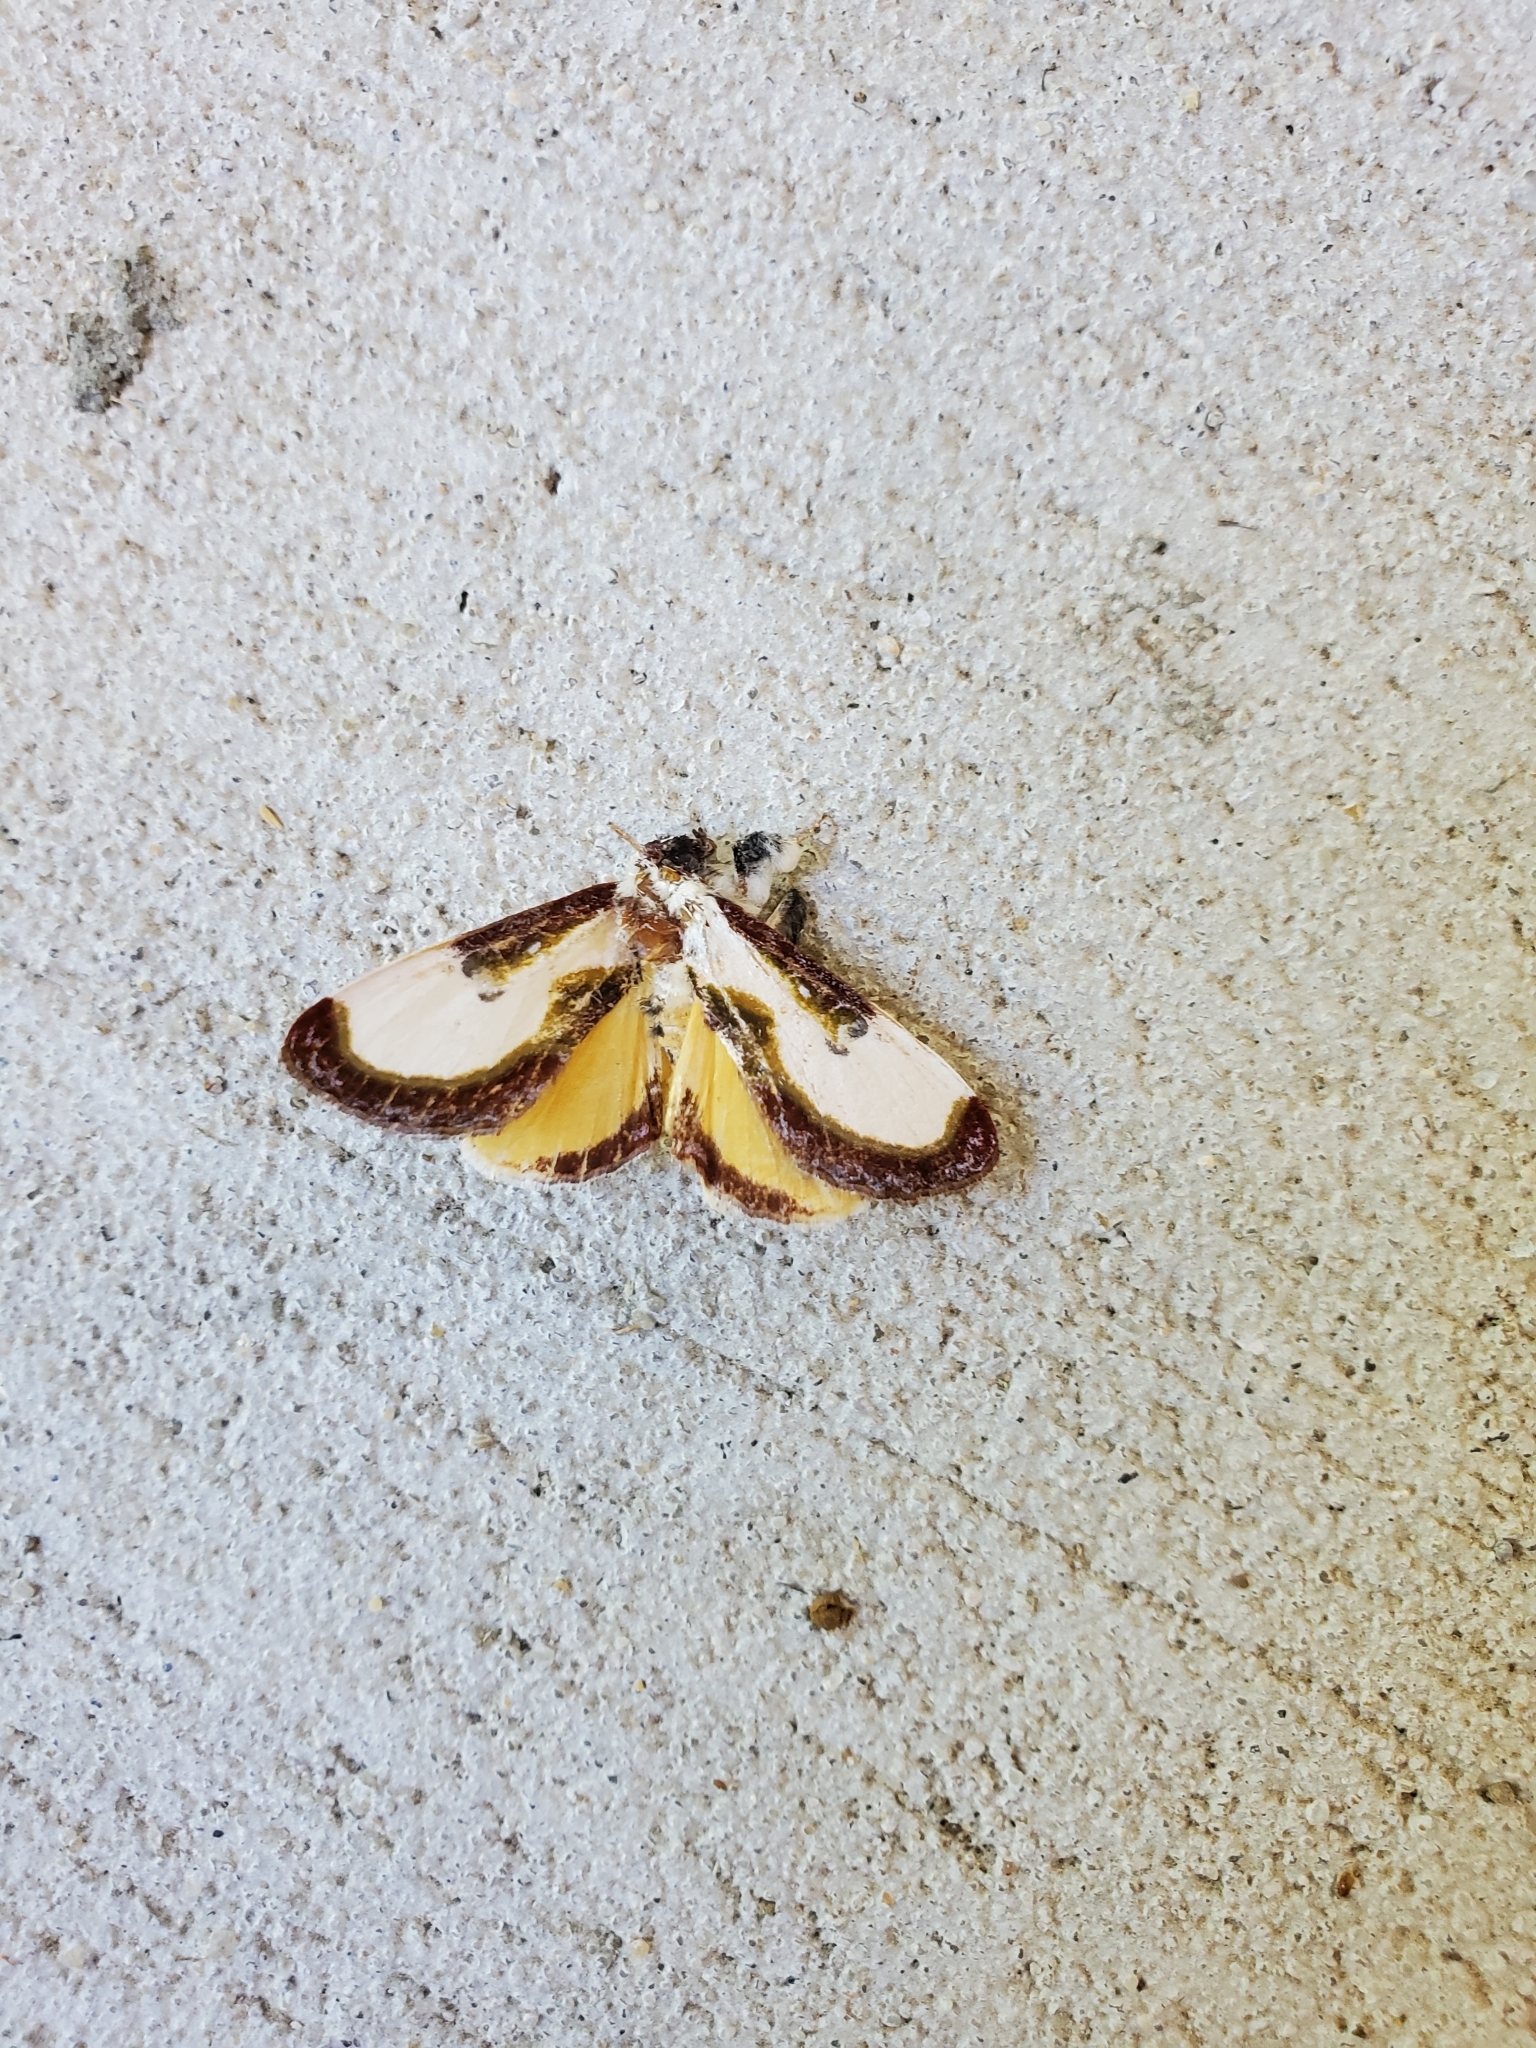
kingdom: Animalia
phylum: Arthropoda
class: Insecta
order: Lepidoptera
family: Noctuidae
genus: Eudryas
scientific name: Eudryas grata
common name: Beautiful wood-nymph
